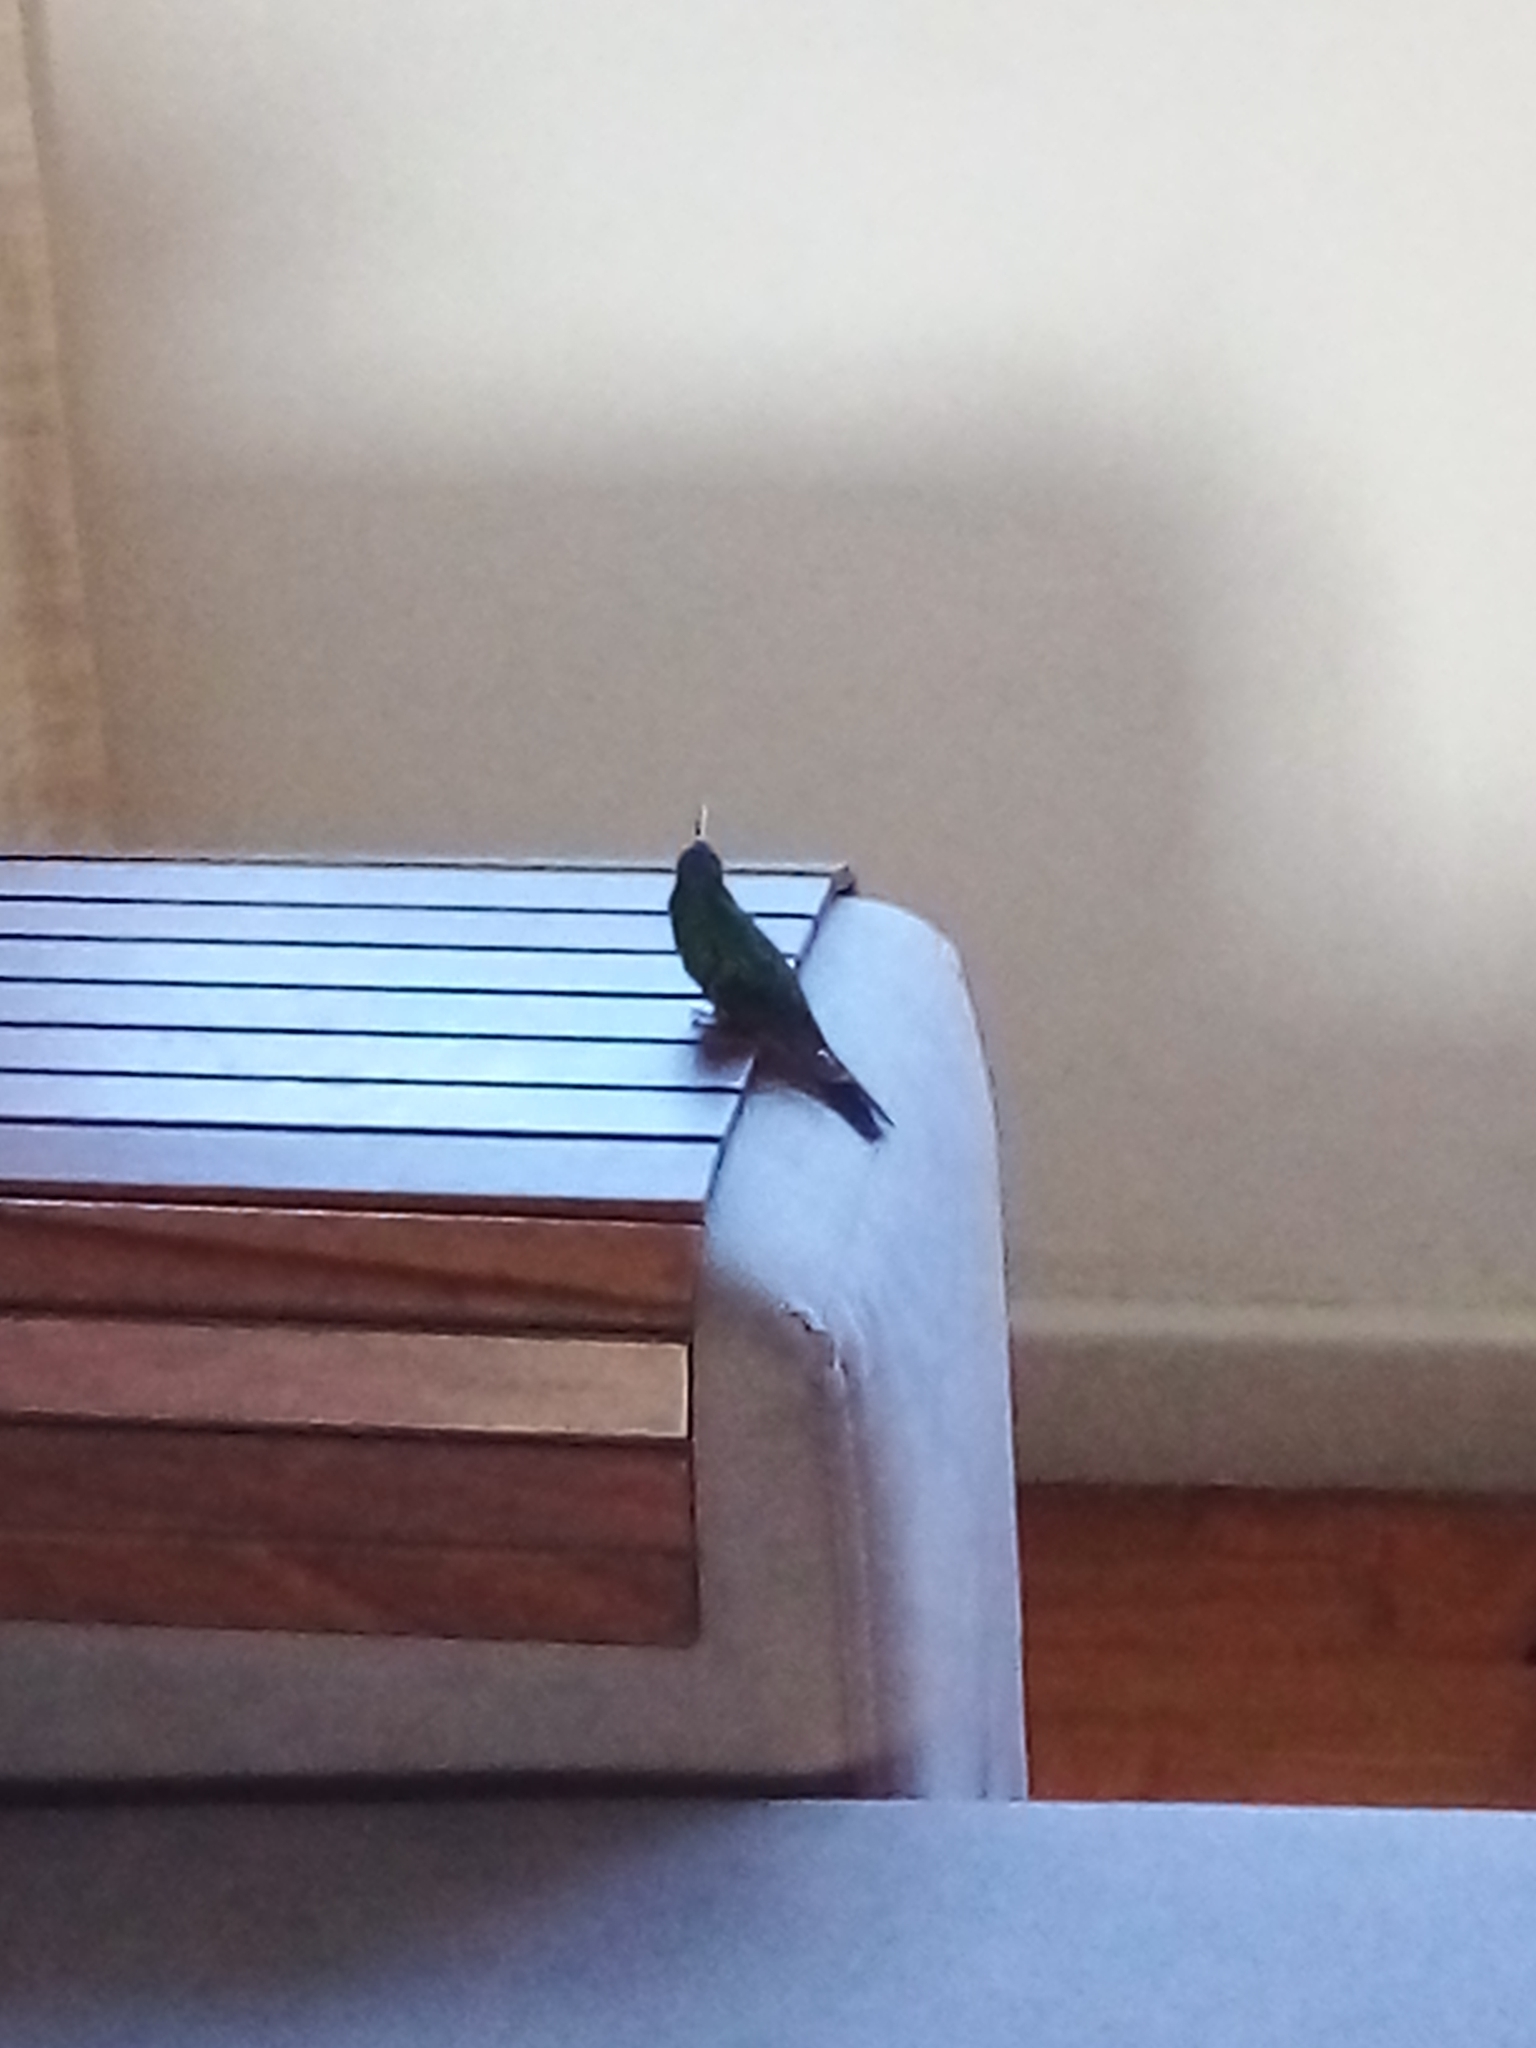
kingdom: Animalia
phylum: Chordata
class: Aves
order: Apodiformes
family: Trochilidae
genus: Thalurania
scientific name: Thalurania glaucopis
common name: Violet-capped woodnymph
